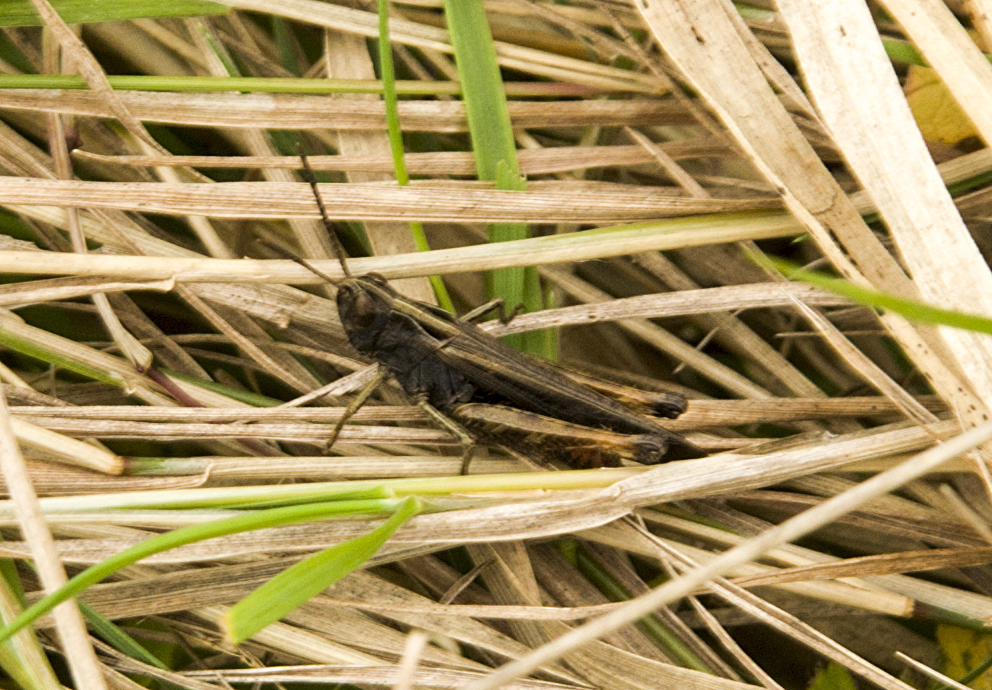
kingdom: Animalia
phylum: Arthropoda
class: Insecta
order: Orthoptera
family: Acrididae
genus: Omocestus
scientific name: Omocestus rufipes
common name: Woodland grasshopper
